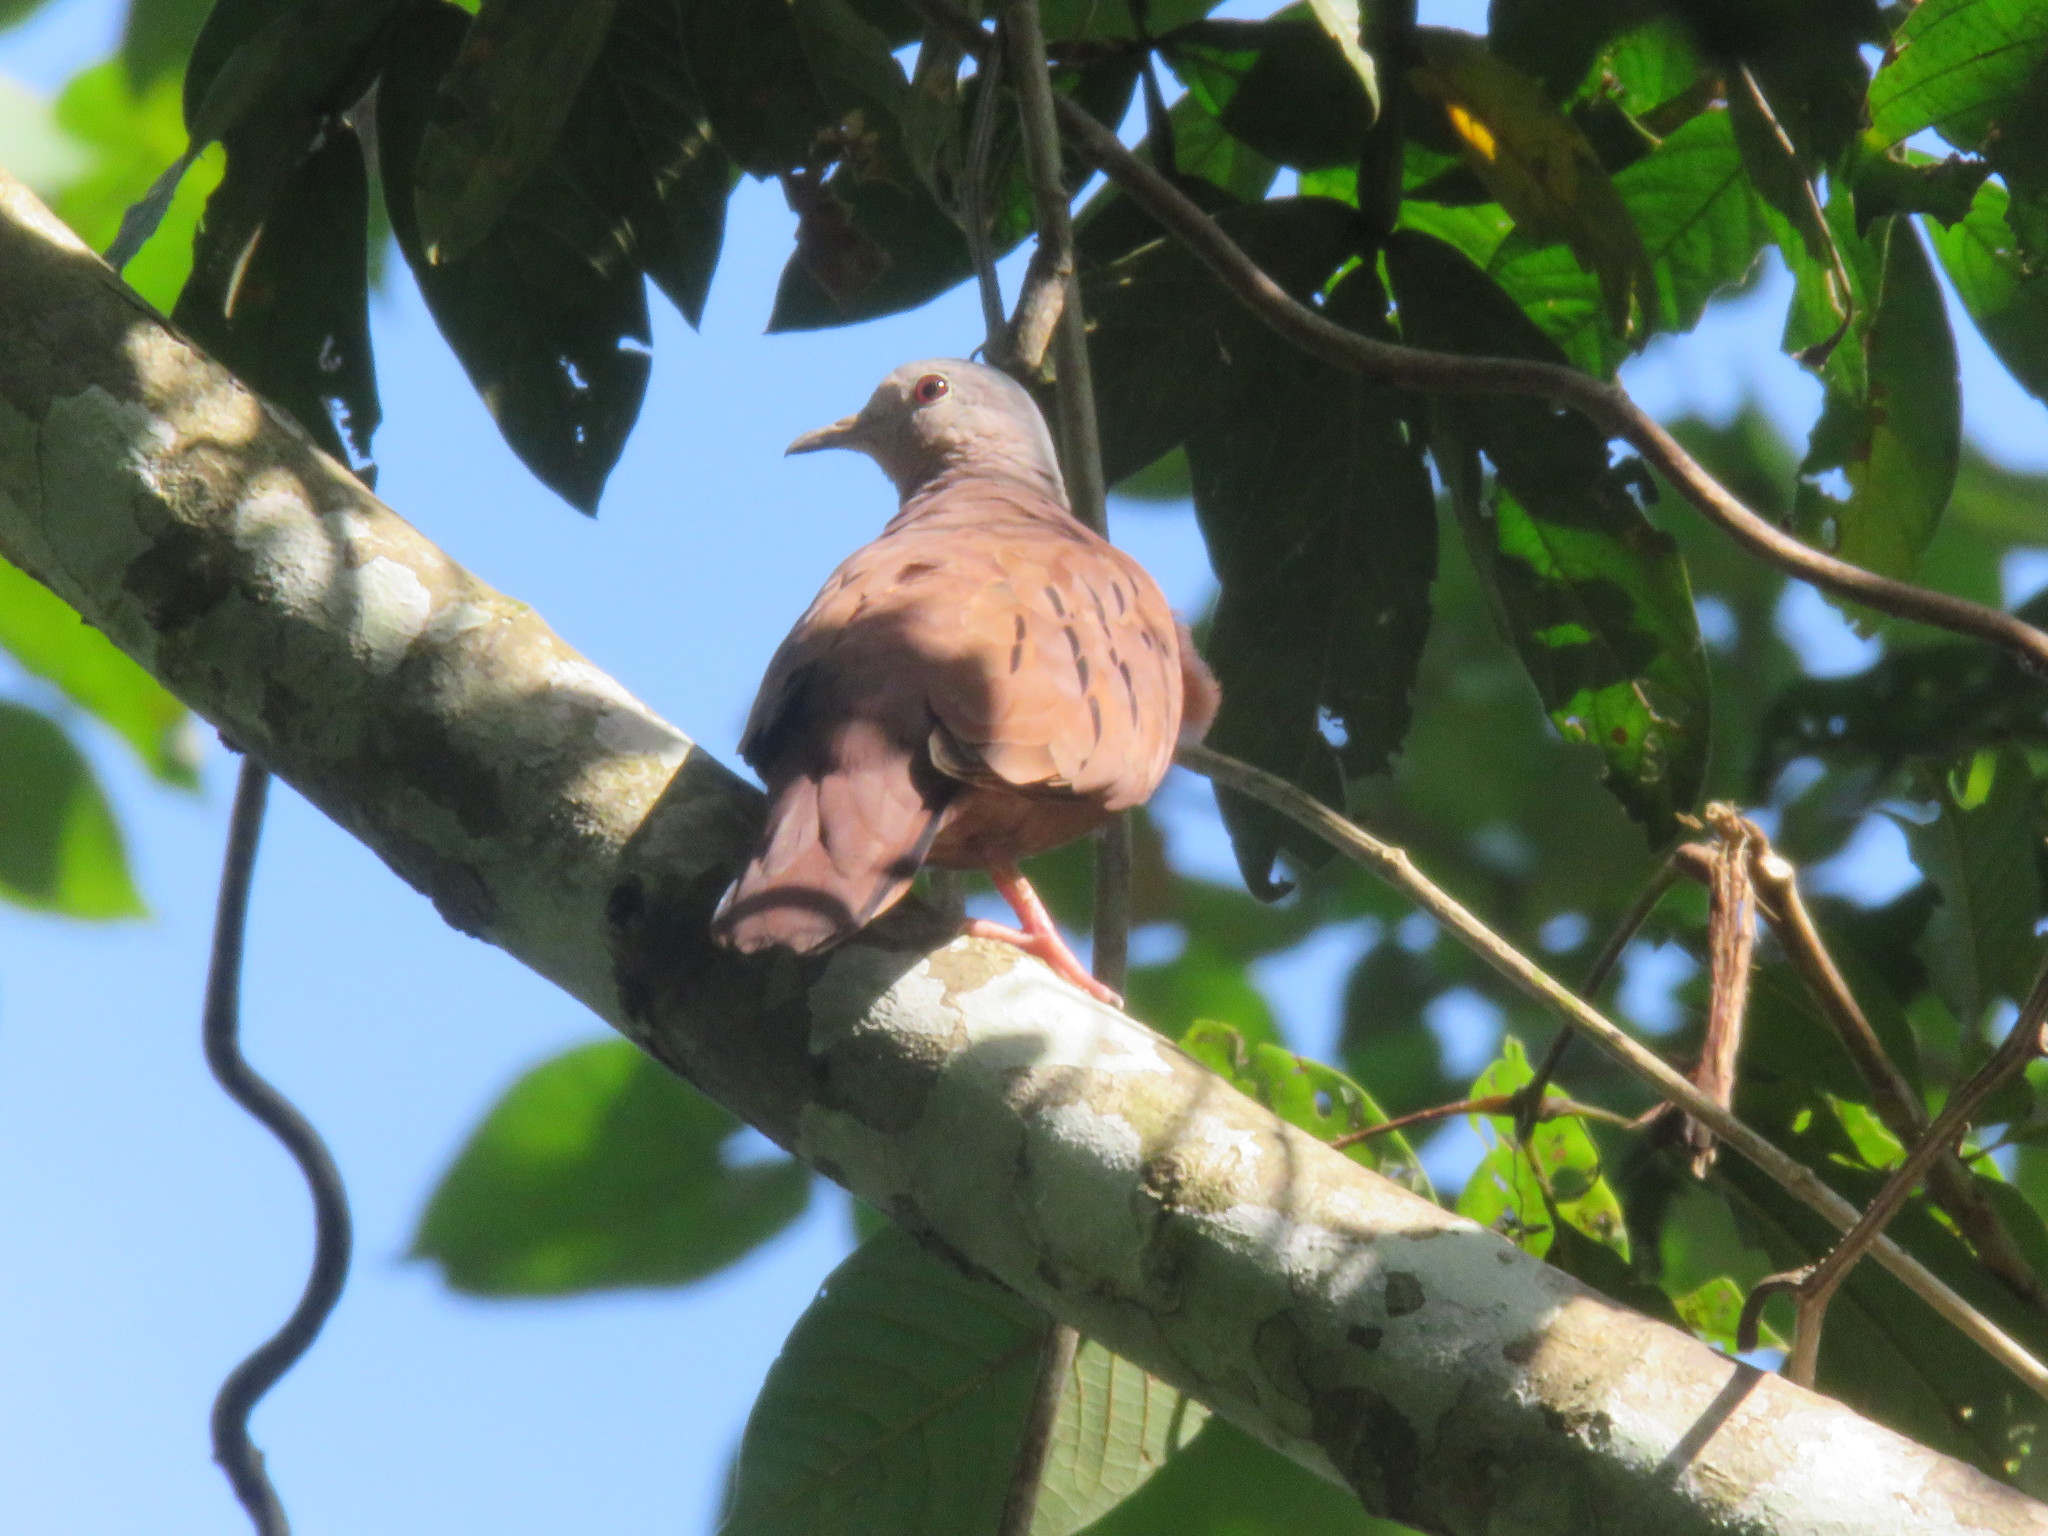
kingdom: Animalia
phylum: Chordata
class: Aves
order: Columbiformes
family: Columbidae
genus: Columbina
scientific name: Columbina talpacoti
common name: Ruddy ground dove
